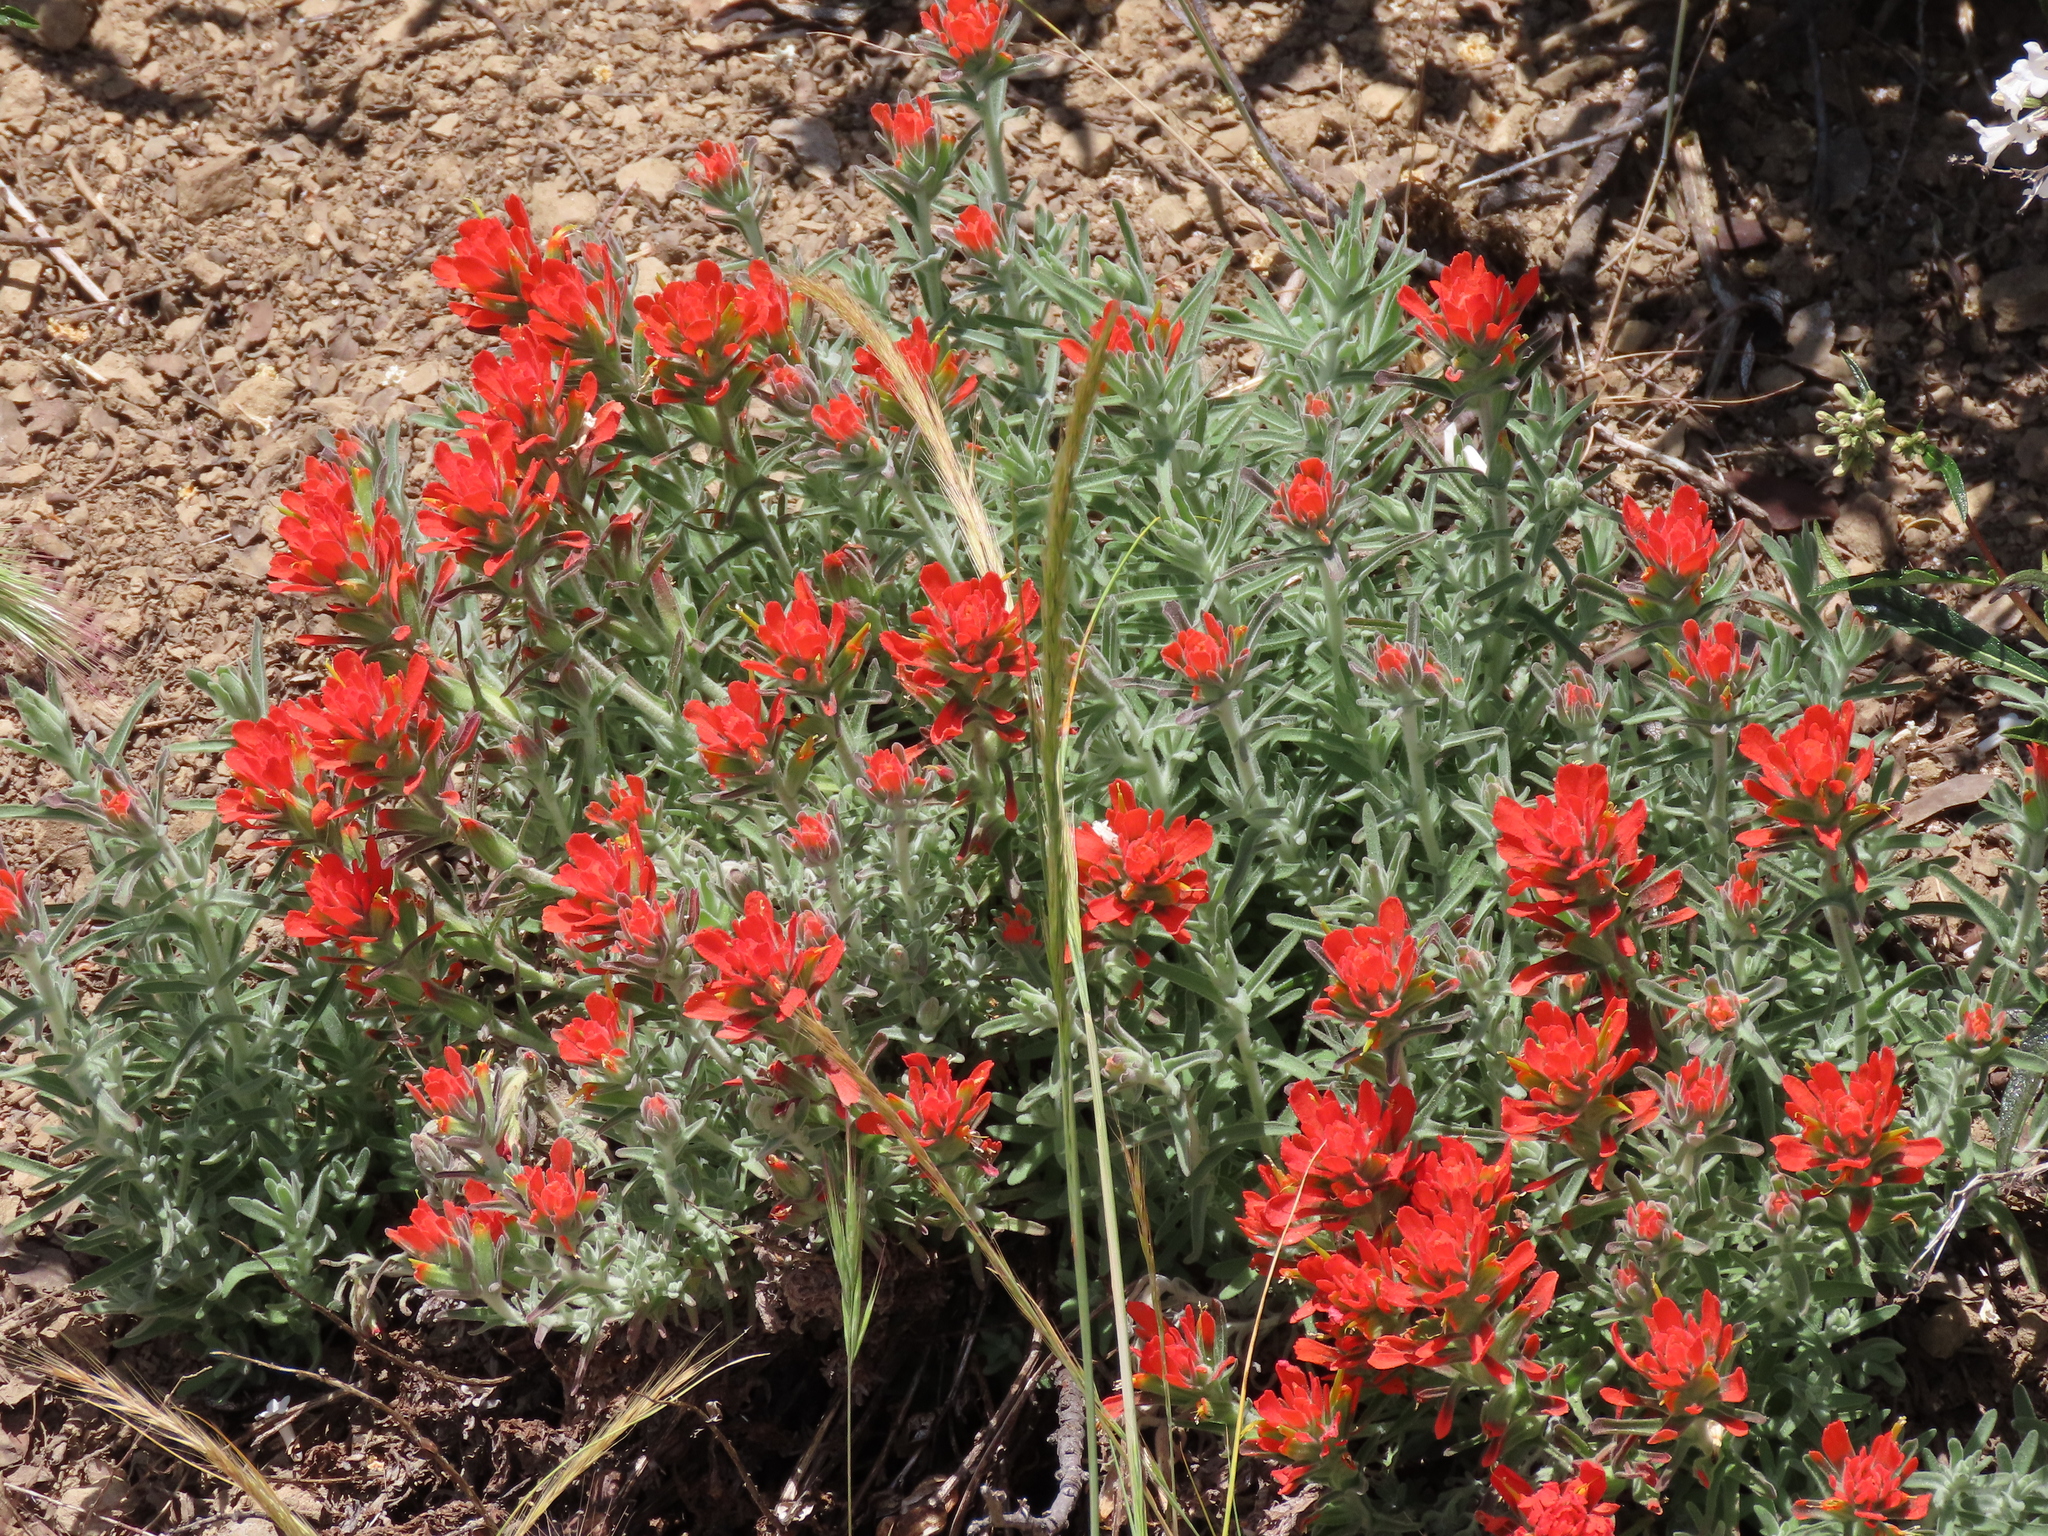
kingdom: Plantae
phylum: Tracheophyta
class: Magnoliopsida
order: Lamiales
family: Orobanchaceae
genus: Castilleja
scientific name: Castilleja foliolosa
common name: Woolly indian paintbrush
